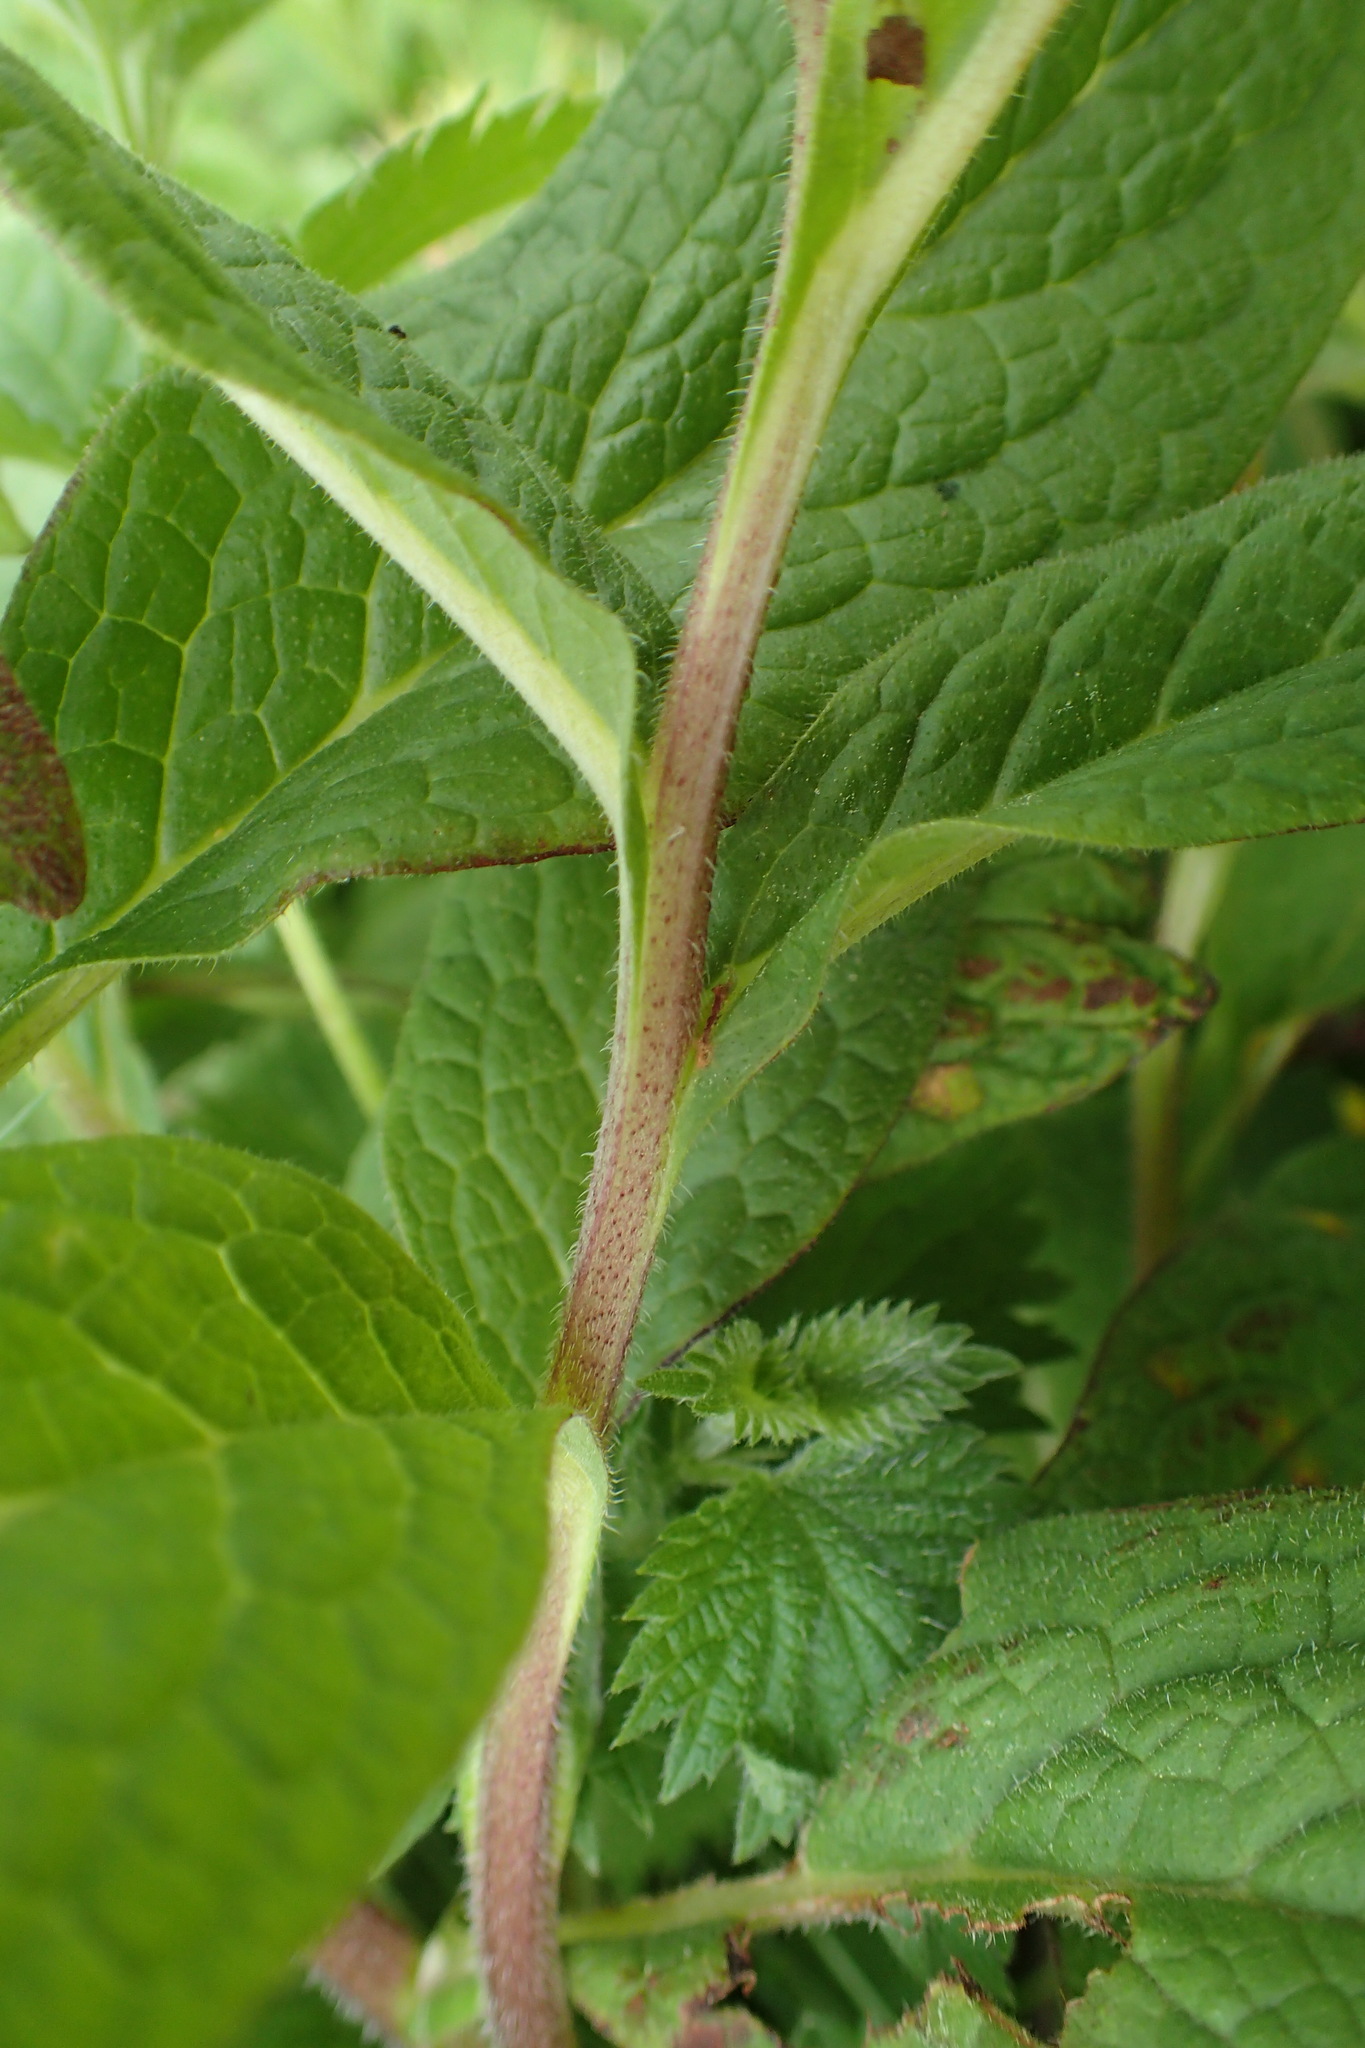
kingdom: Plantae
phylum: Tracheophyta
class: Magnoliopsida
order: Boraginales
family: Boraginaceae
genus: Symphytum
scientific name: Symphytum tuberosum
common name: Tuberous comfrey
